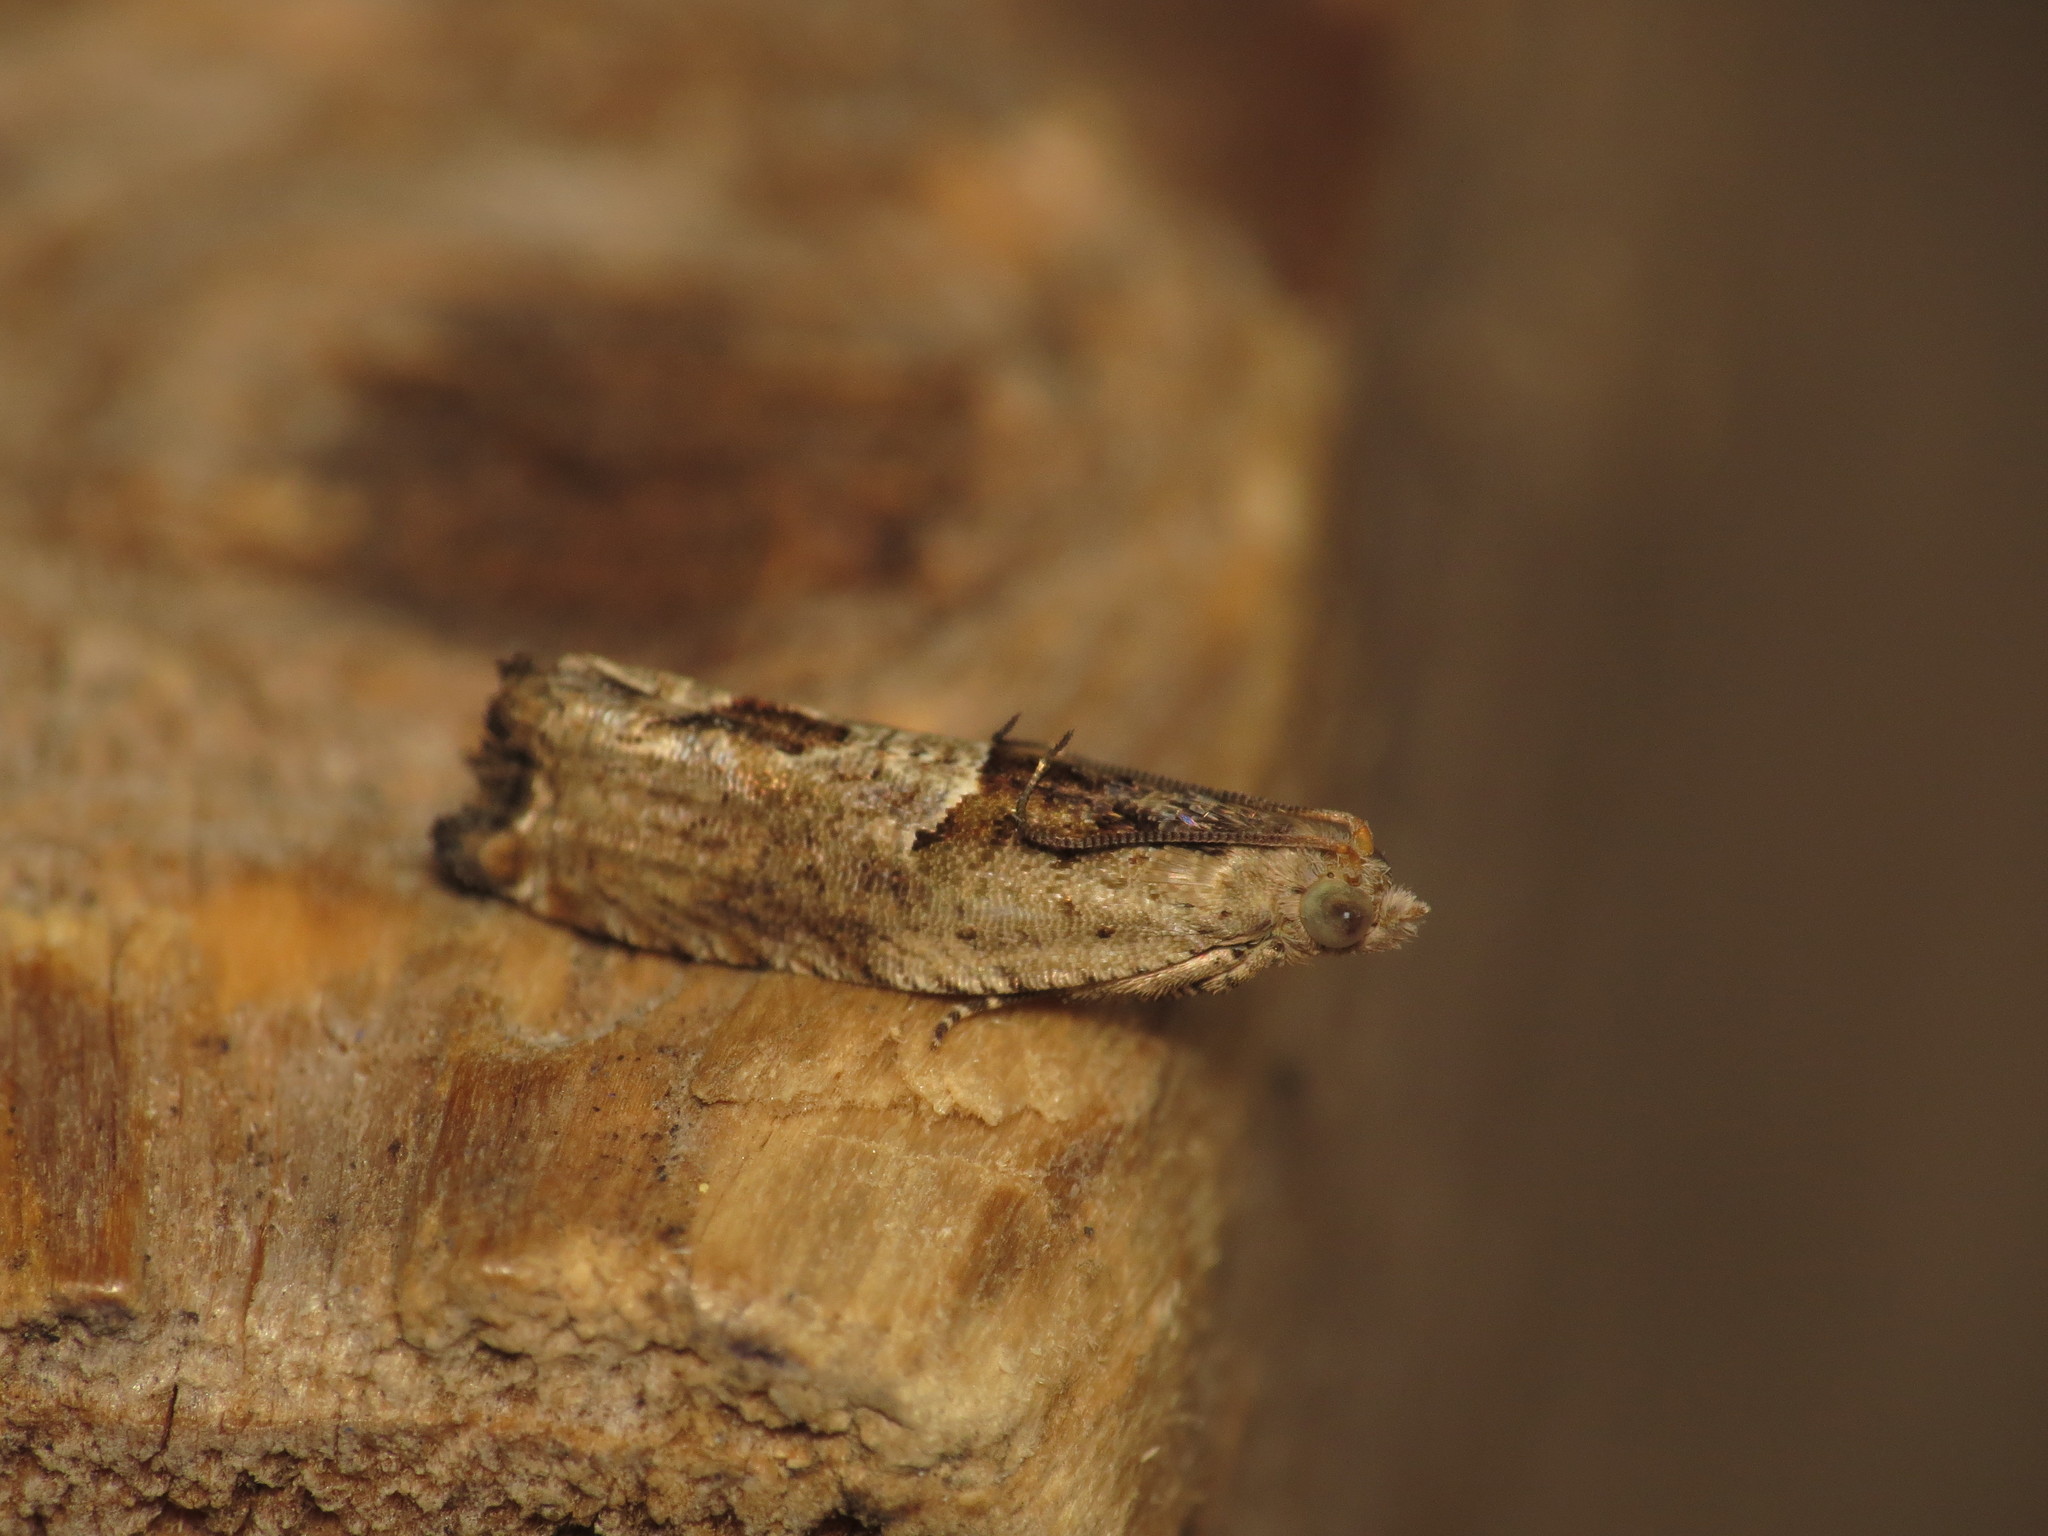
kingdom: Animalia
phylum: Arthropoda
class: Insecta
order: Lepidoptera
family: Tortricidae
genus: Crocidosema
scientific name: Crocidosema plebejana
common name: Southern bell
